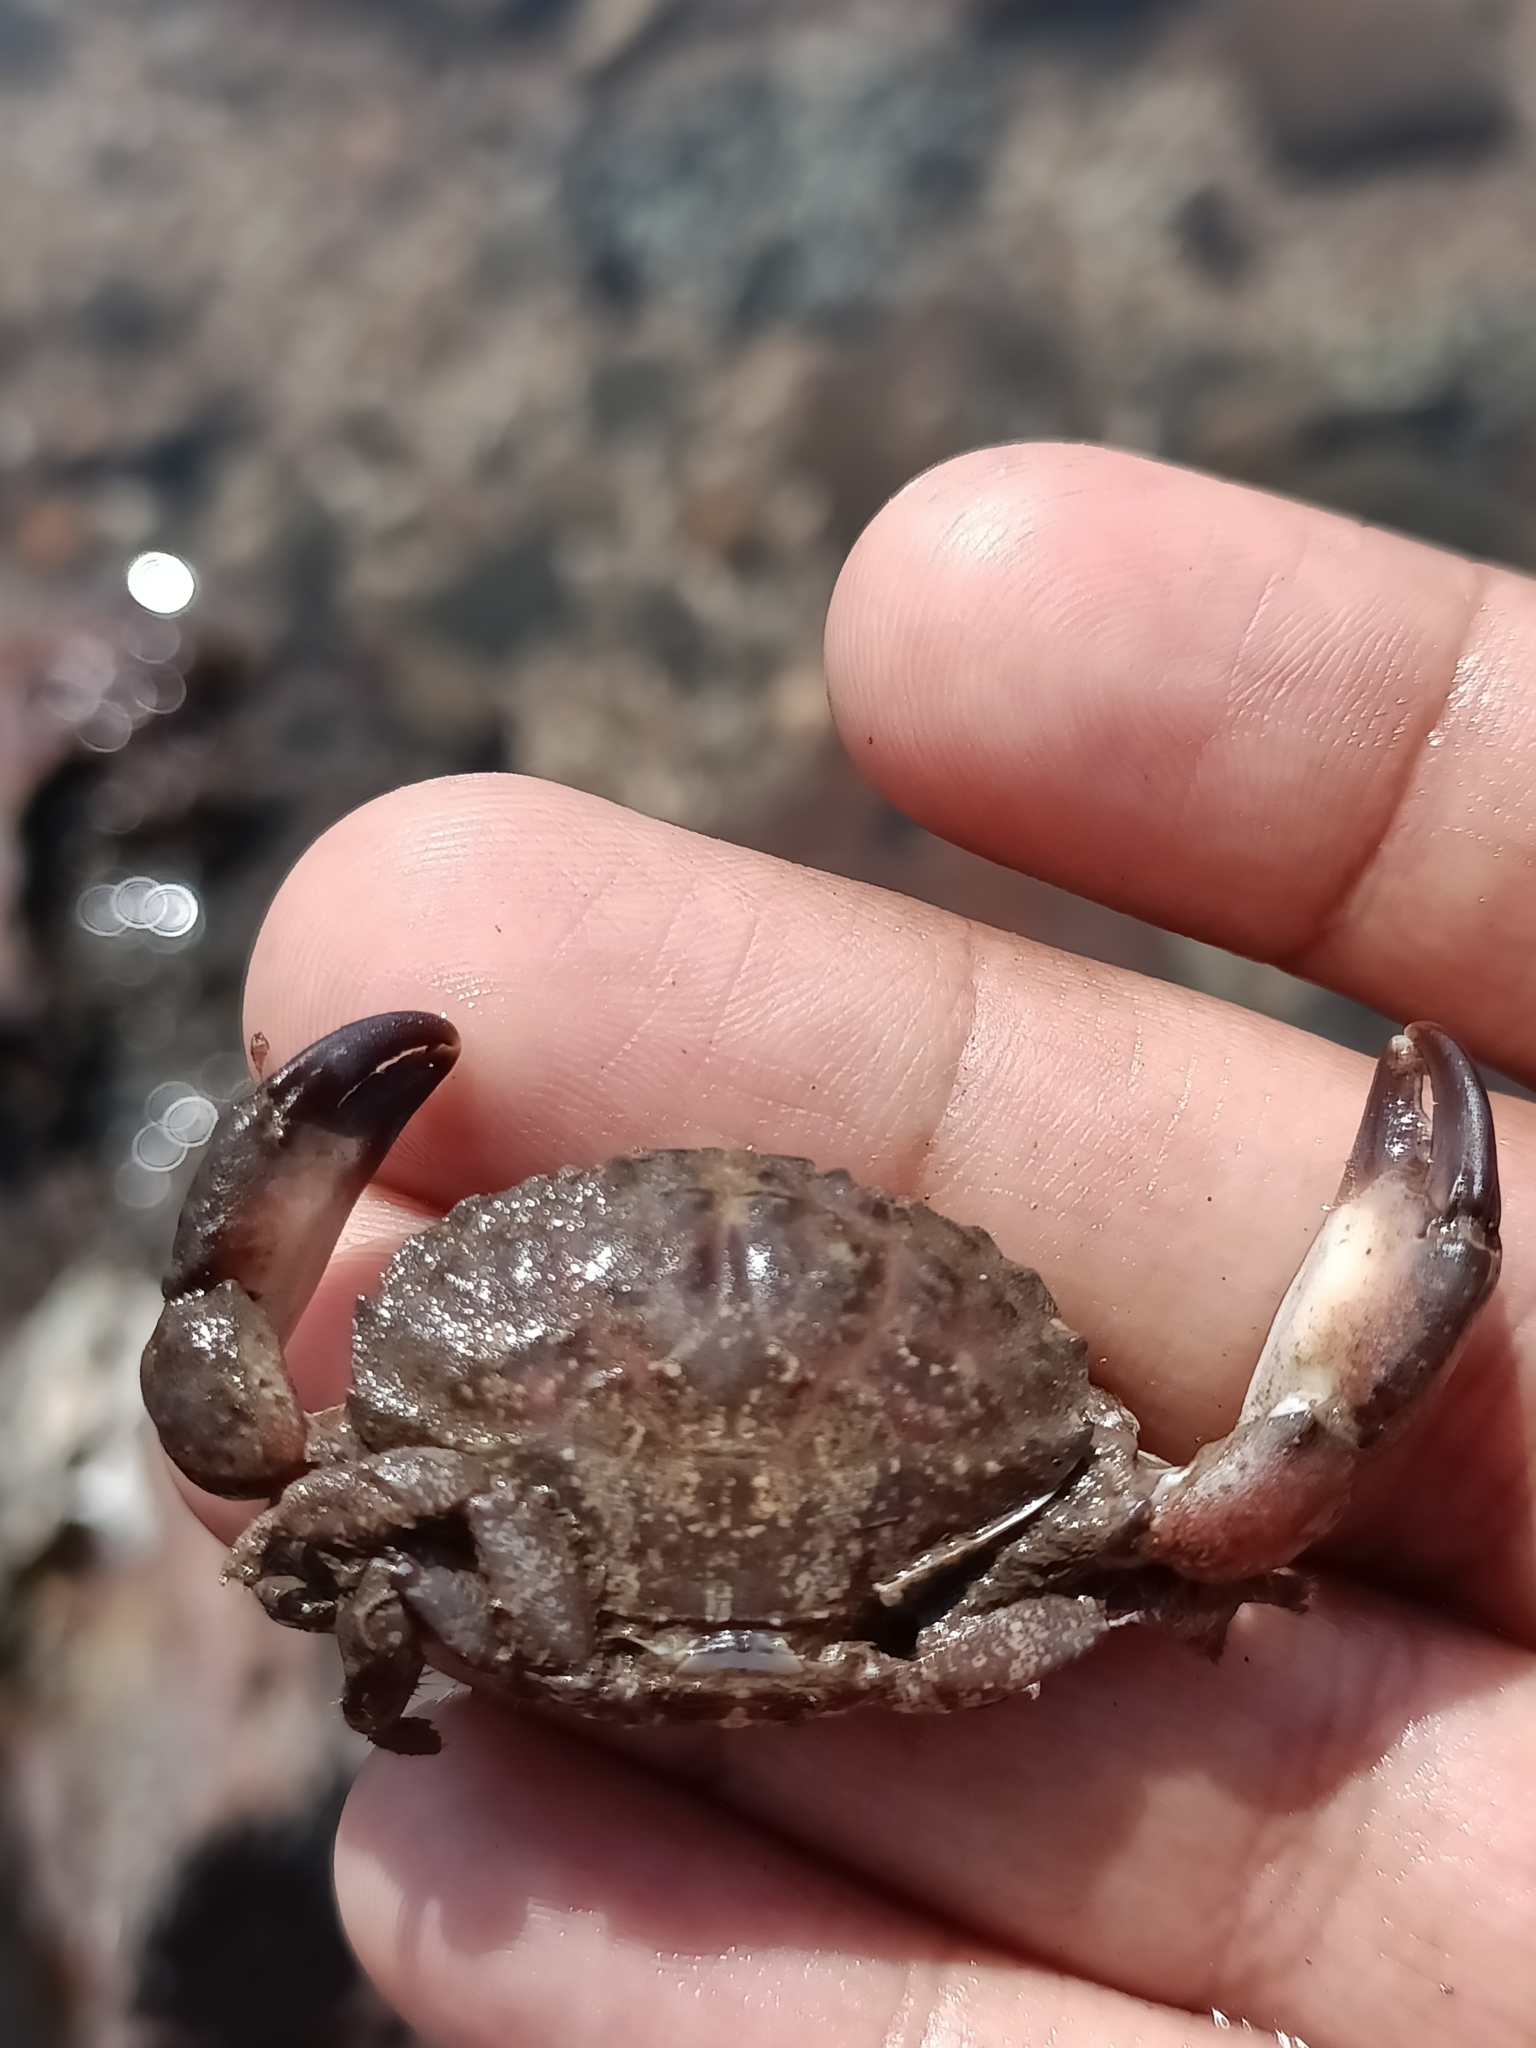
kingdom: Animalia
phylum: Arthropoda
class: Malacostraca
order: Decapoda
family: Menippidae
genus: Myomenippe
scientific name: Myomenippe hardwickii
